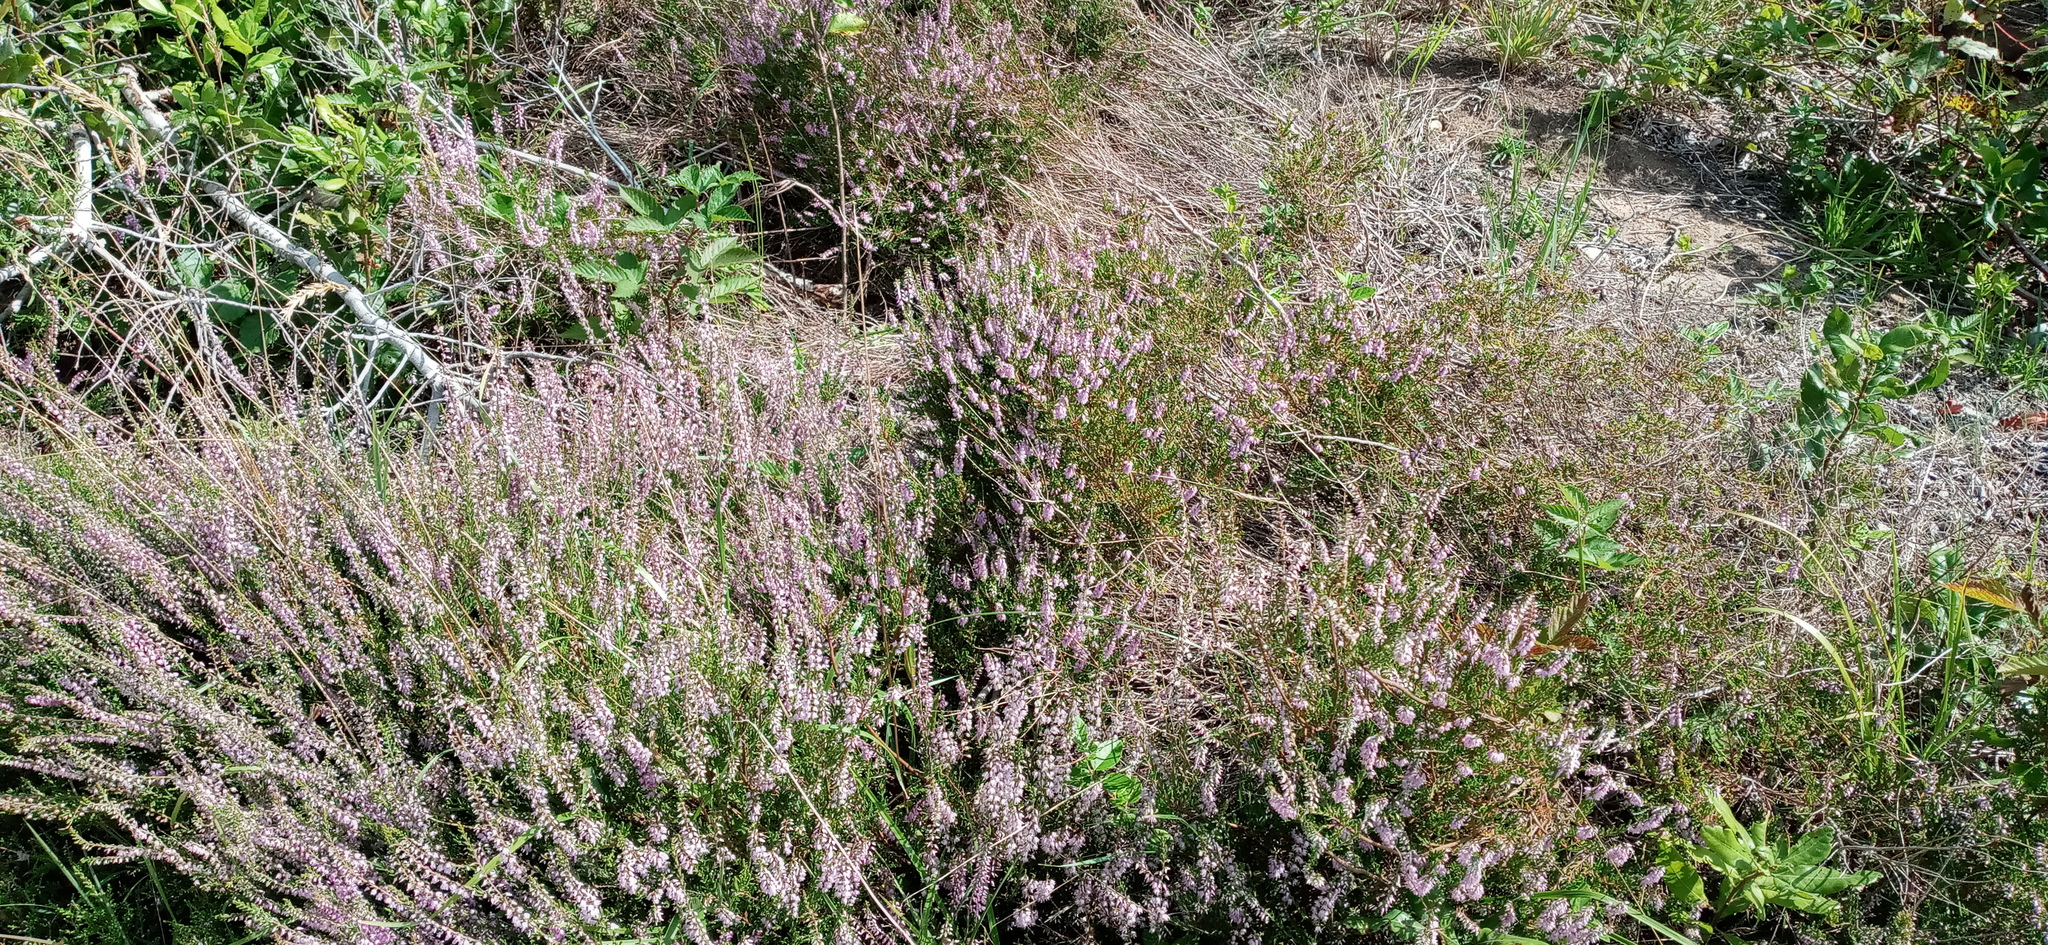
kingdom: Plantae
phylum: Tracheophyta
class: Magnoliopsida
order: Ericales
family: Ericaceae
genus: Calluna
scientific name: Calluna vulgaris
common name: Heather
